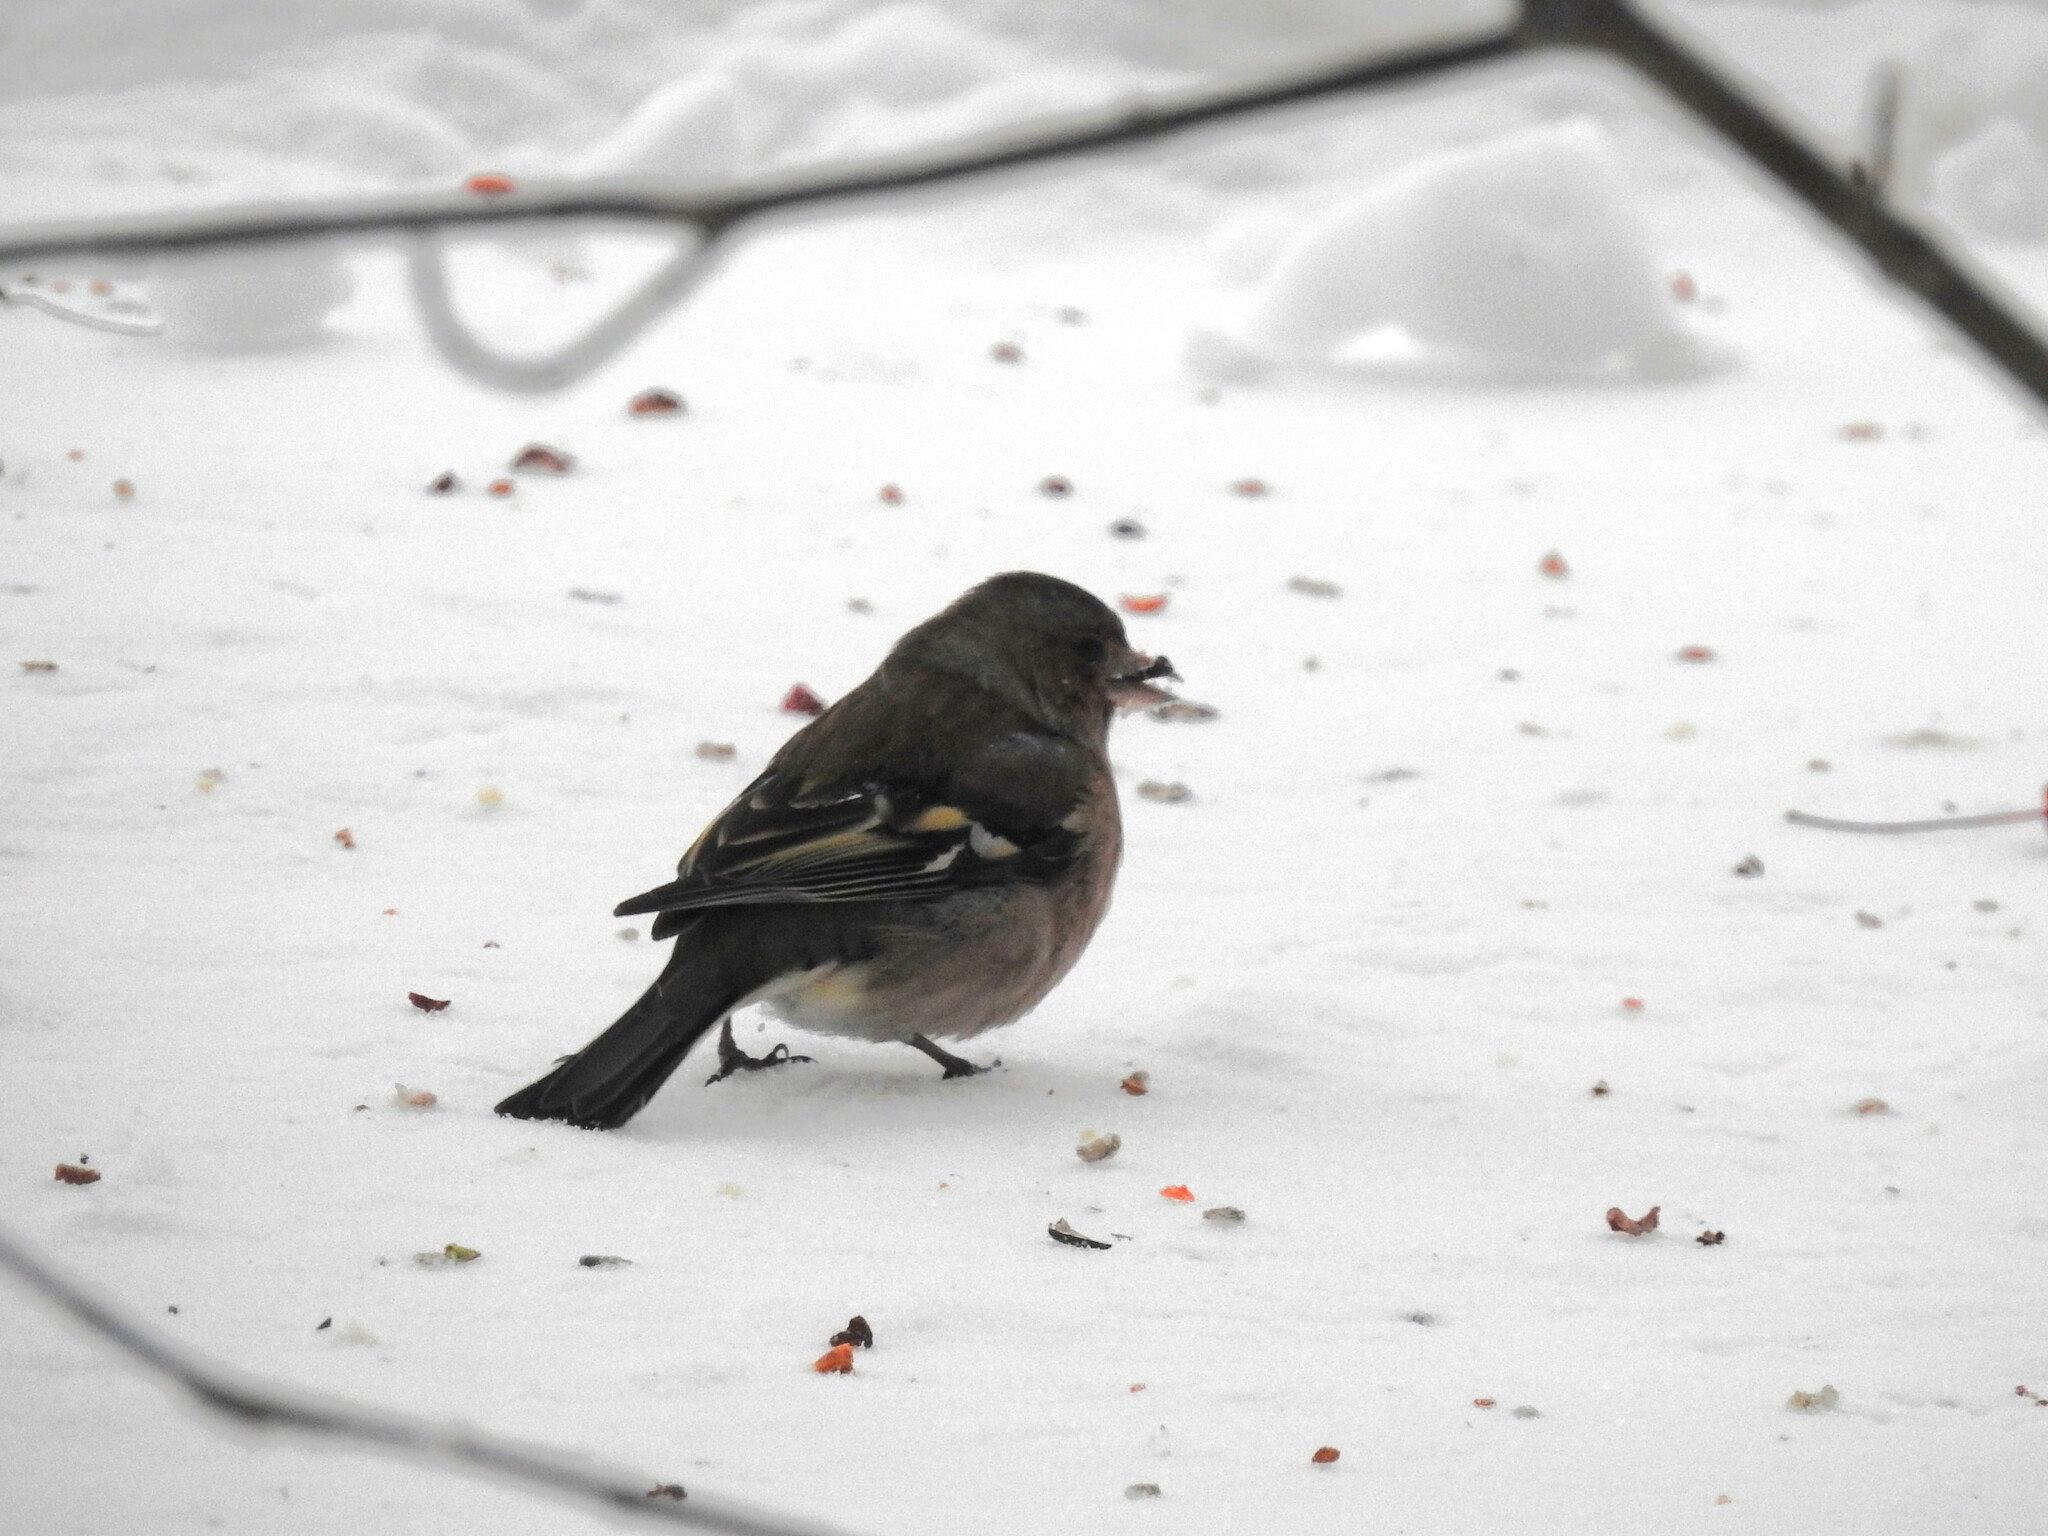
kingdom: Animalia
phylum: Chordata
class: Aves
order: Passeriformes
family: Fringillidae
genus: Fringilla
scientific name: Fringilla coelebs
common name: Common chaffinch
